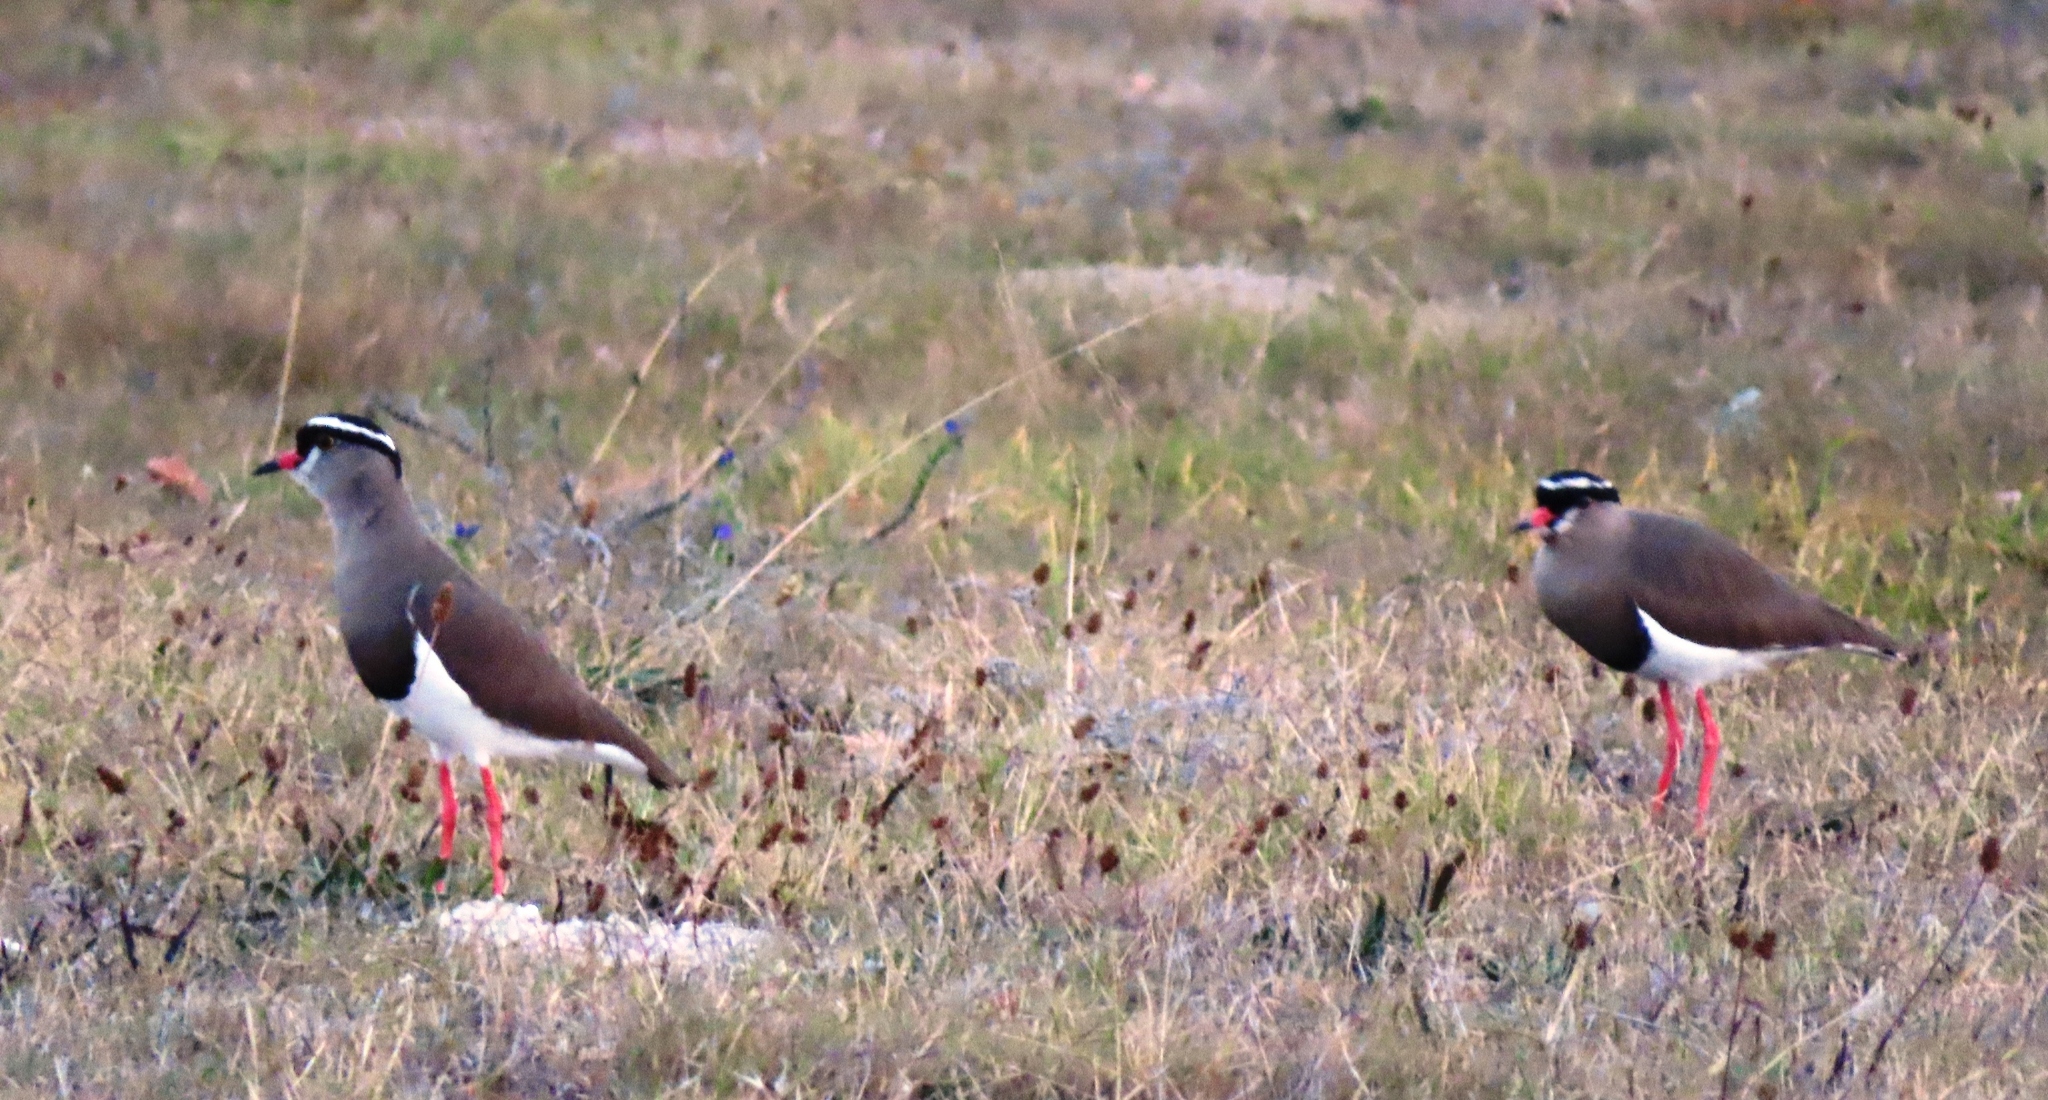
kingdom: Animalia
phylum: Chordata
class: Aves
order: Charadriiformes
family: Charadriidae
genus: Vanellus
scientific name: Vanellus coronatus
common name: Crowned lapwing
